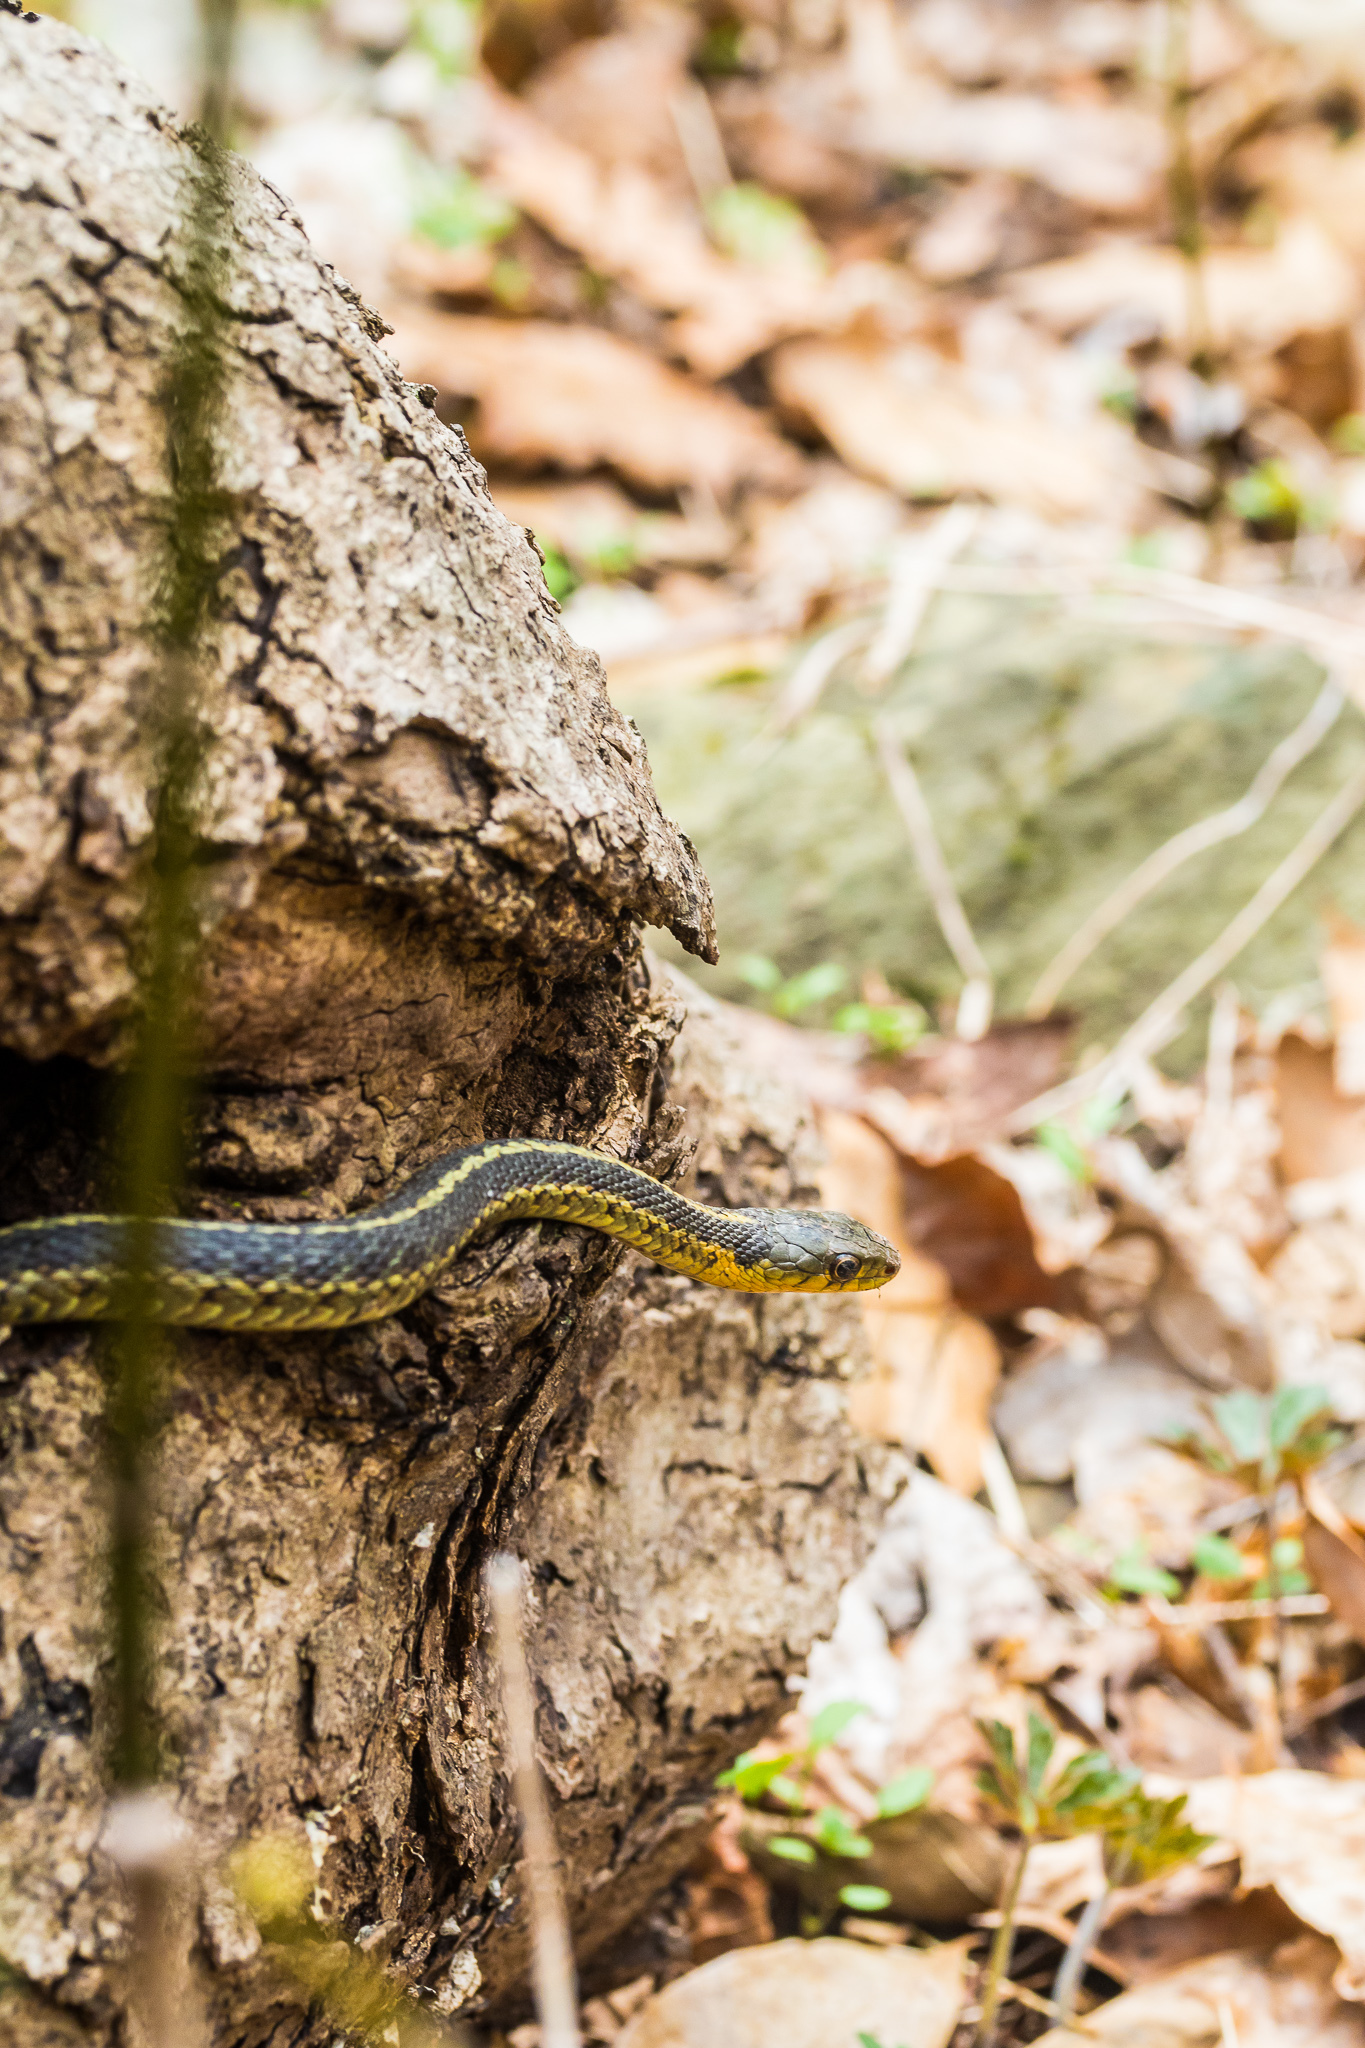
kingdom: Animalia
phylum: Chordata
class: Squamata
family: Colubridae
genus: Thamnophis
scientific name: Thamnophis sirtalis
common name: Common garter snake
